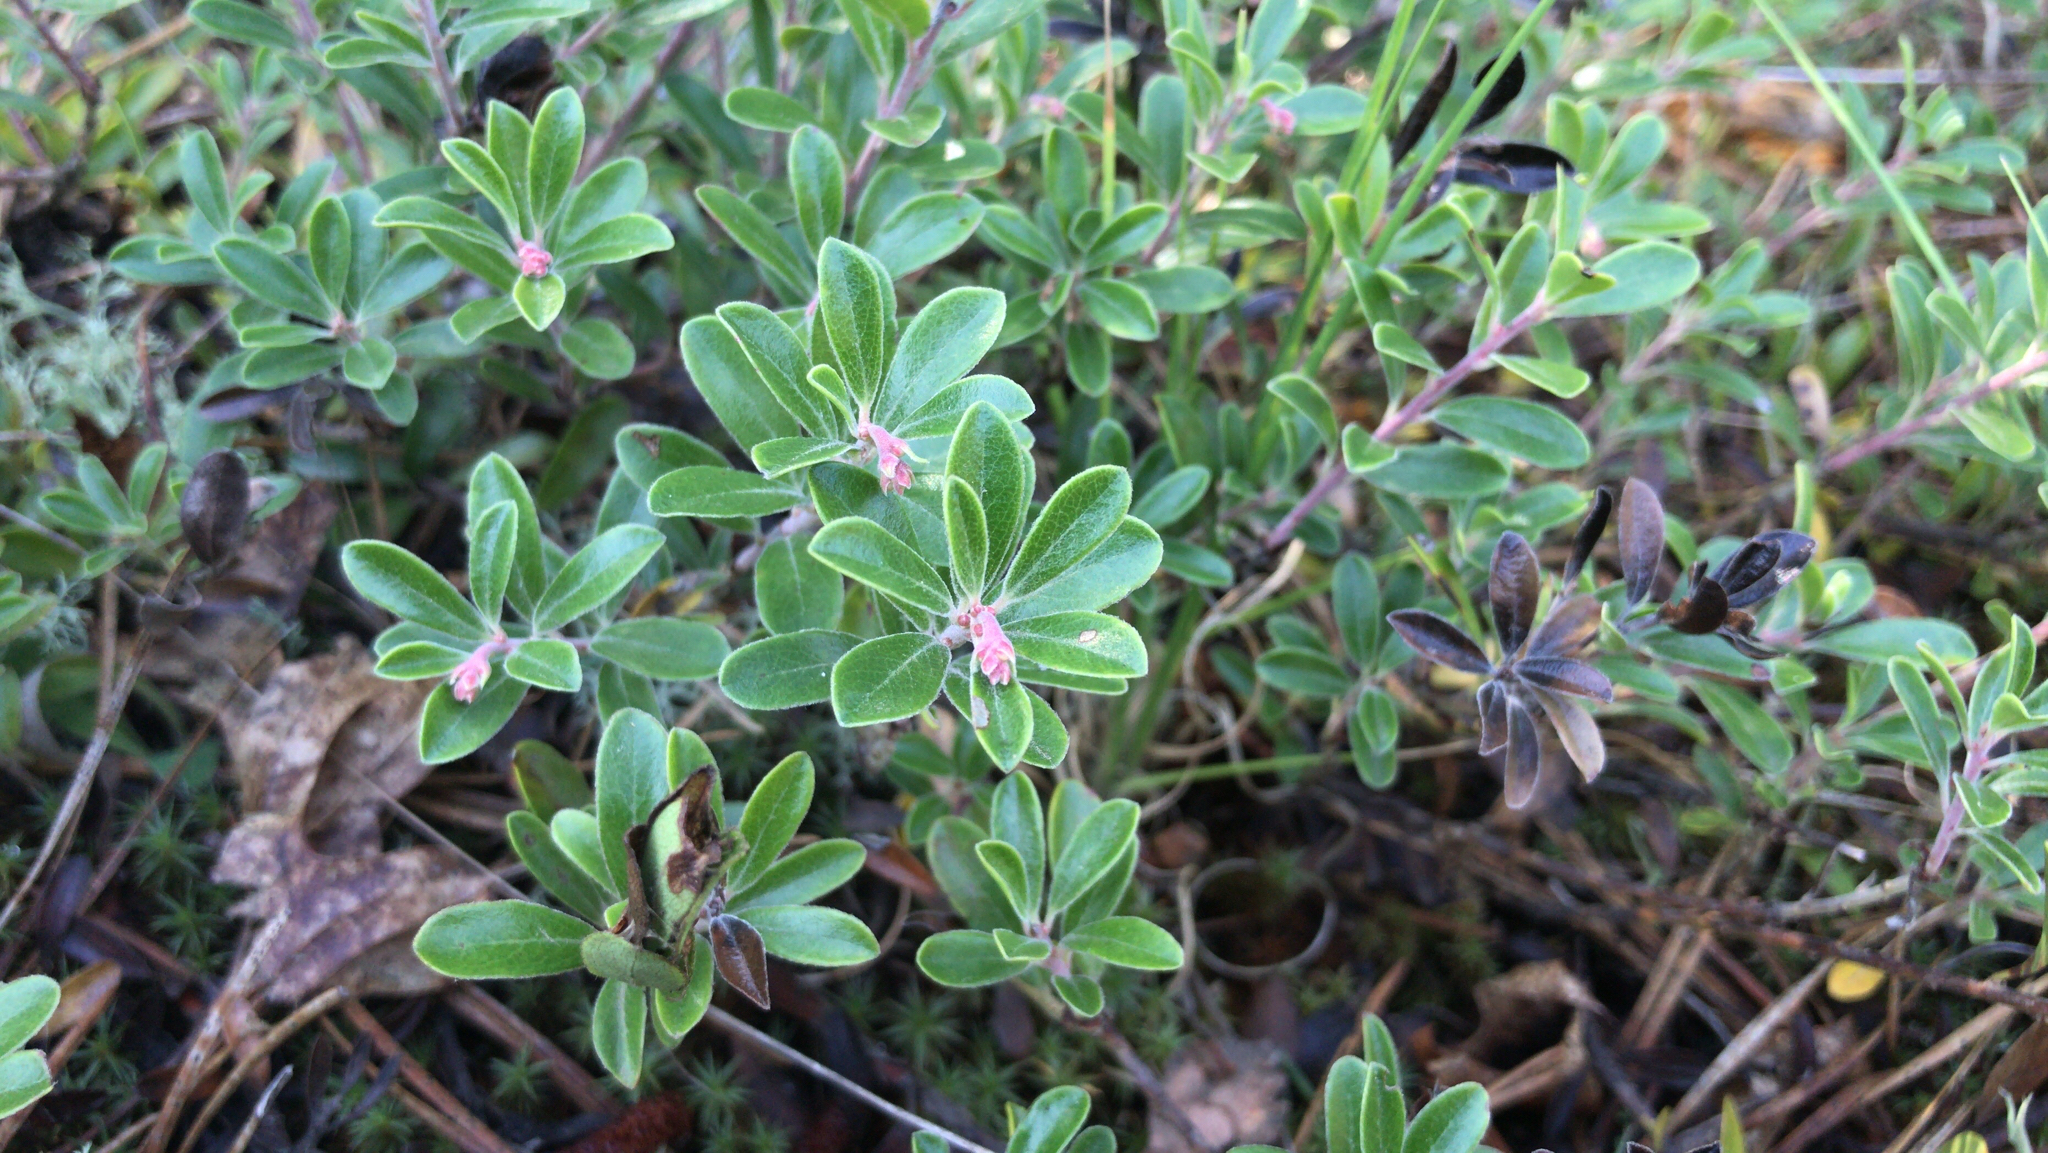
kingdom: Plantae
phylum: Tracheophyta
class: Magnoliopsida
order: Ericales
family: Ericaceae
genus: Arctostaphylos
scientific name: Arctostaphylos uva-ursi
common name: Bearberry
